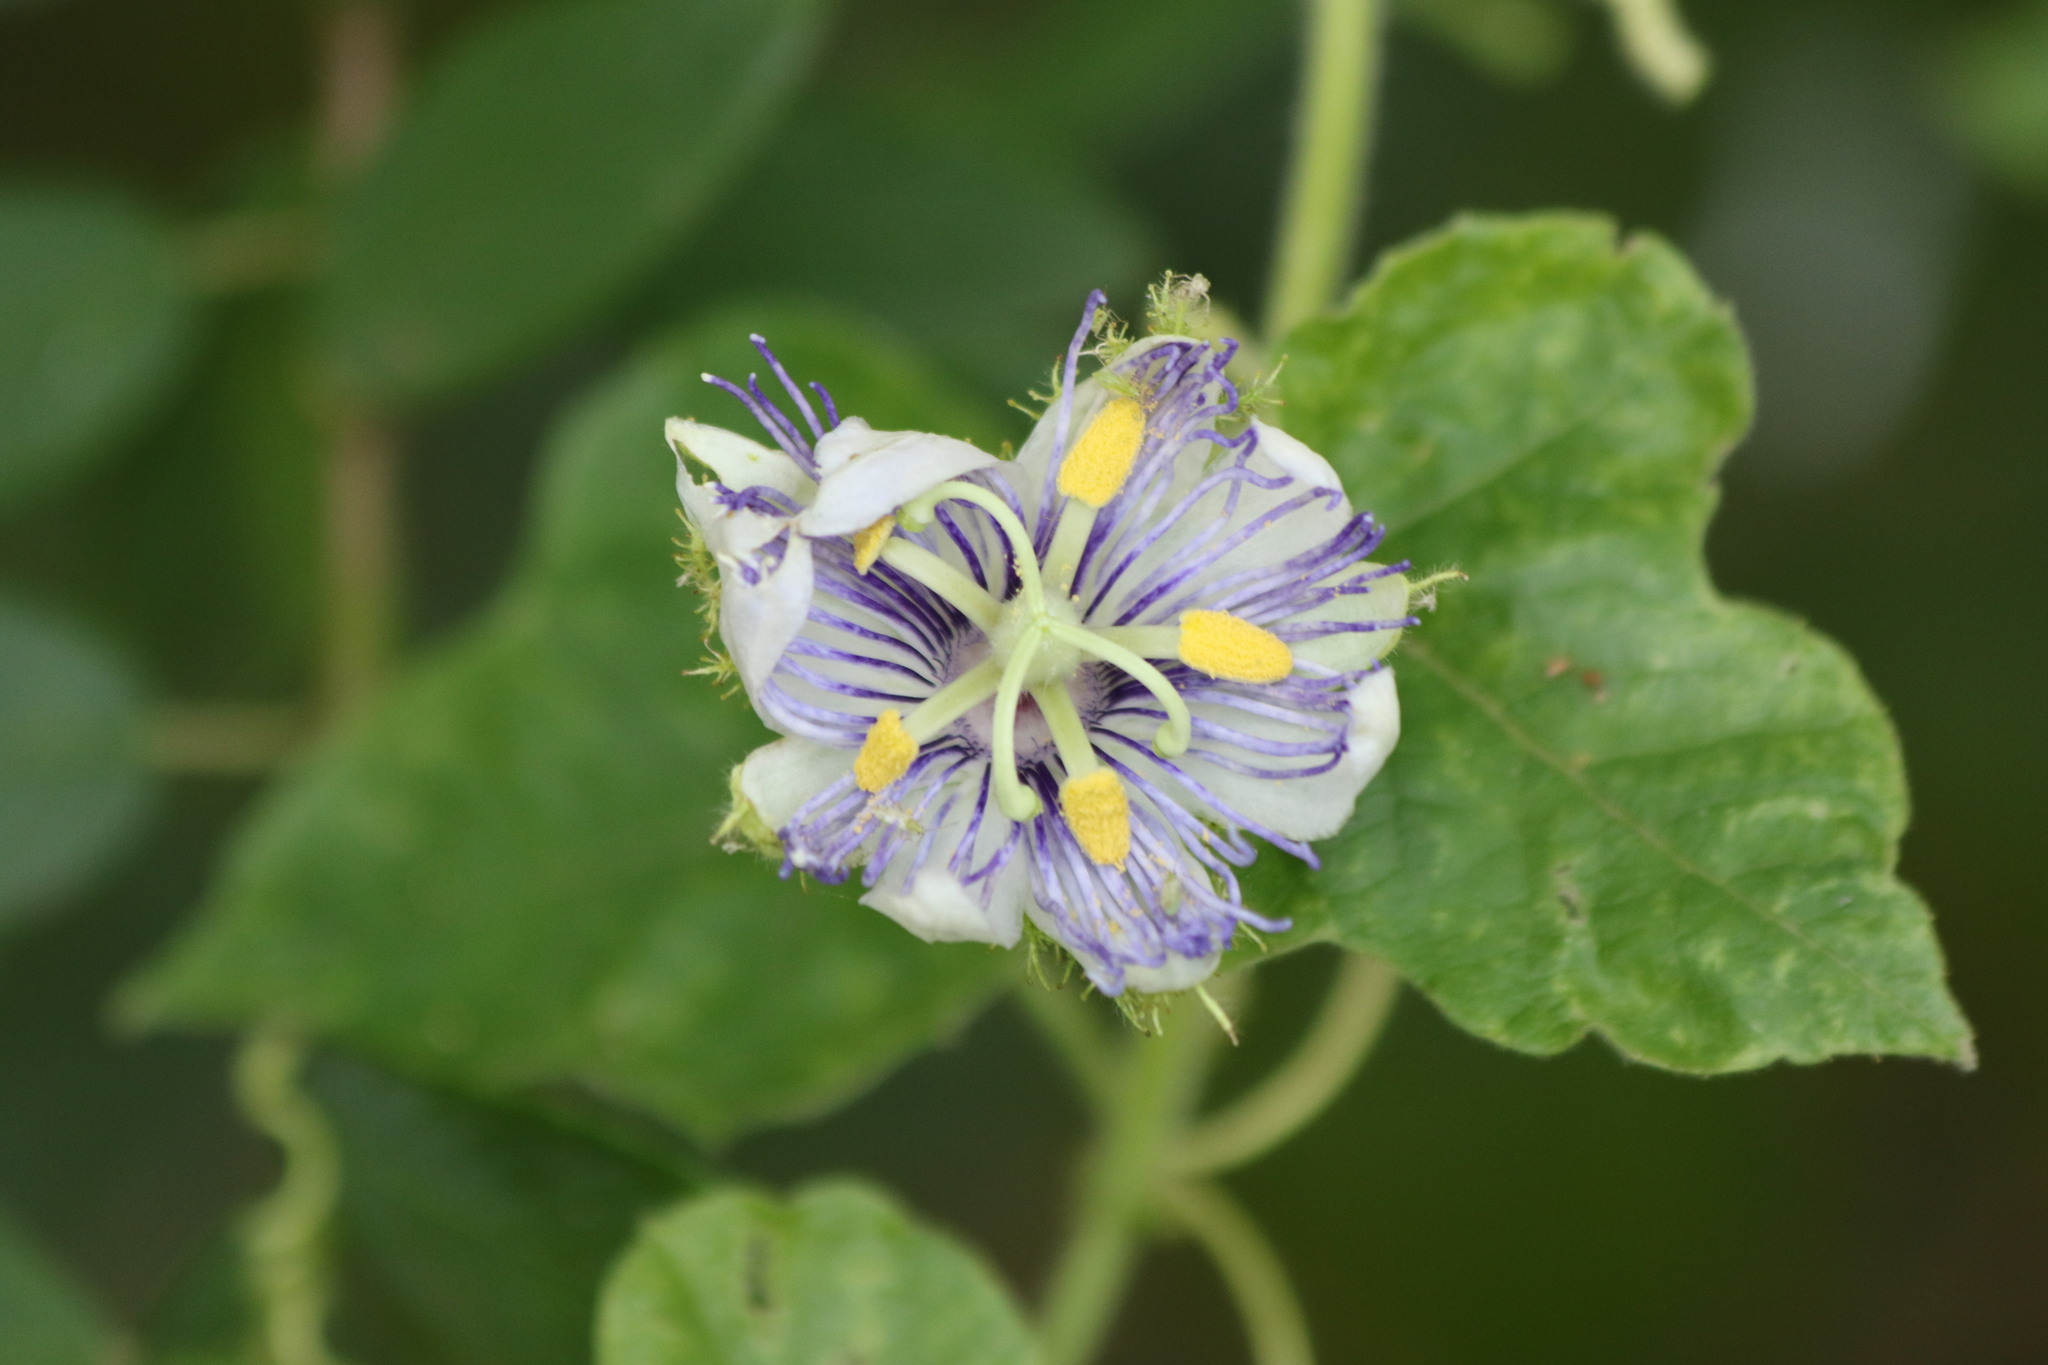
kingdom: Plantae
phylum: Tracheophyta
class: Magnoliopsida
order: Malpighiales
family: Passifloraceae
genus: Passiflora
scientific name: Passiflora foetida
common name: Fetid passionflower
